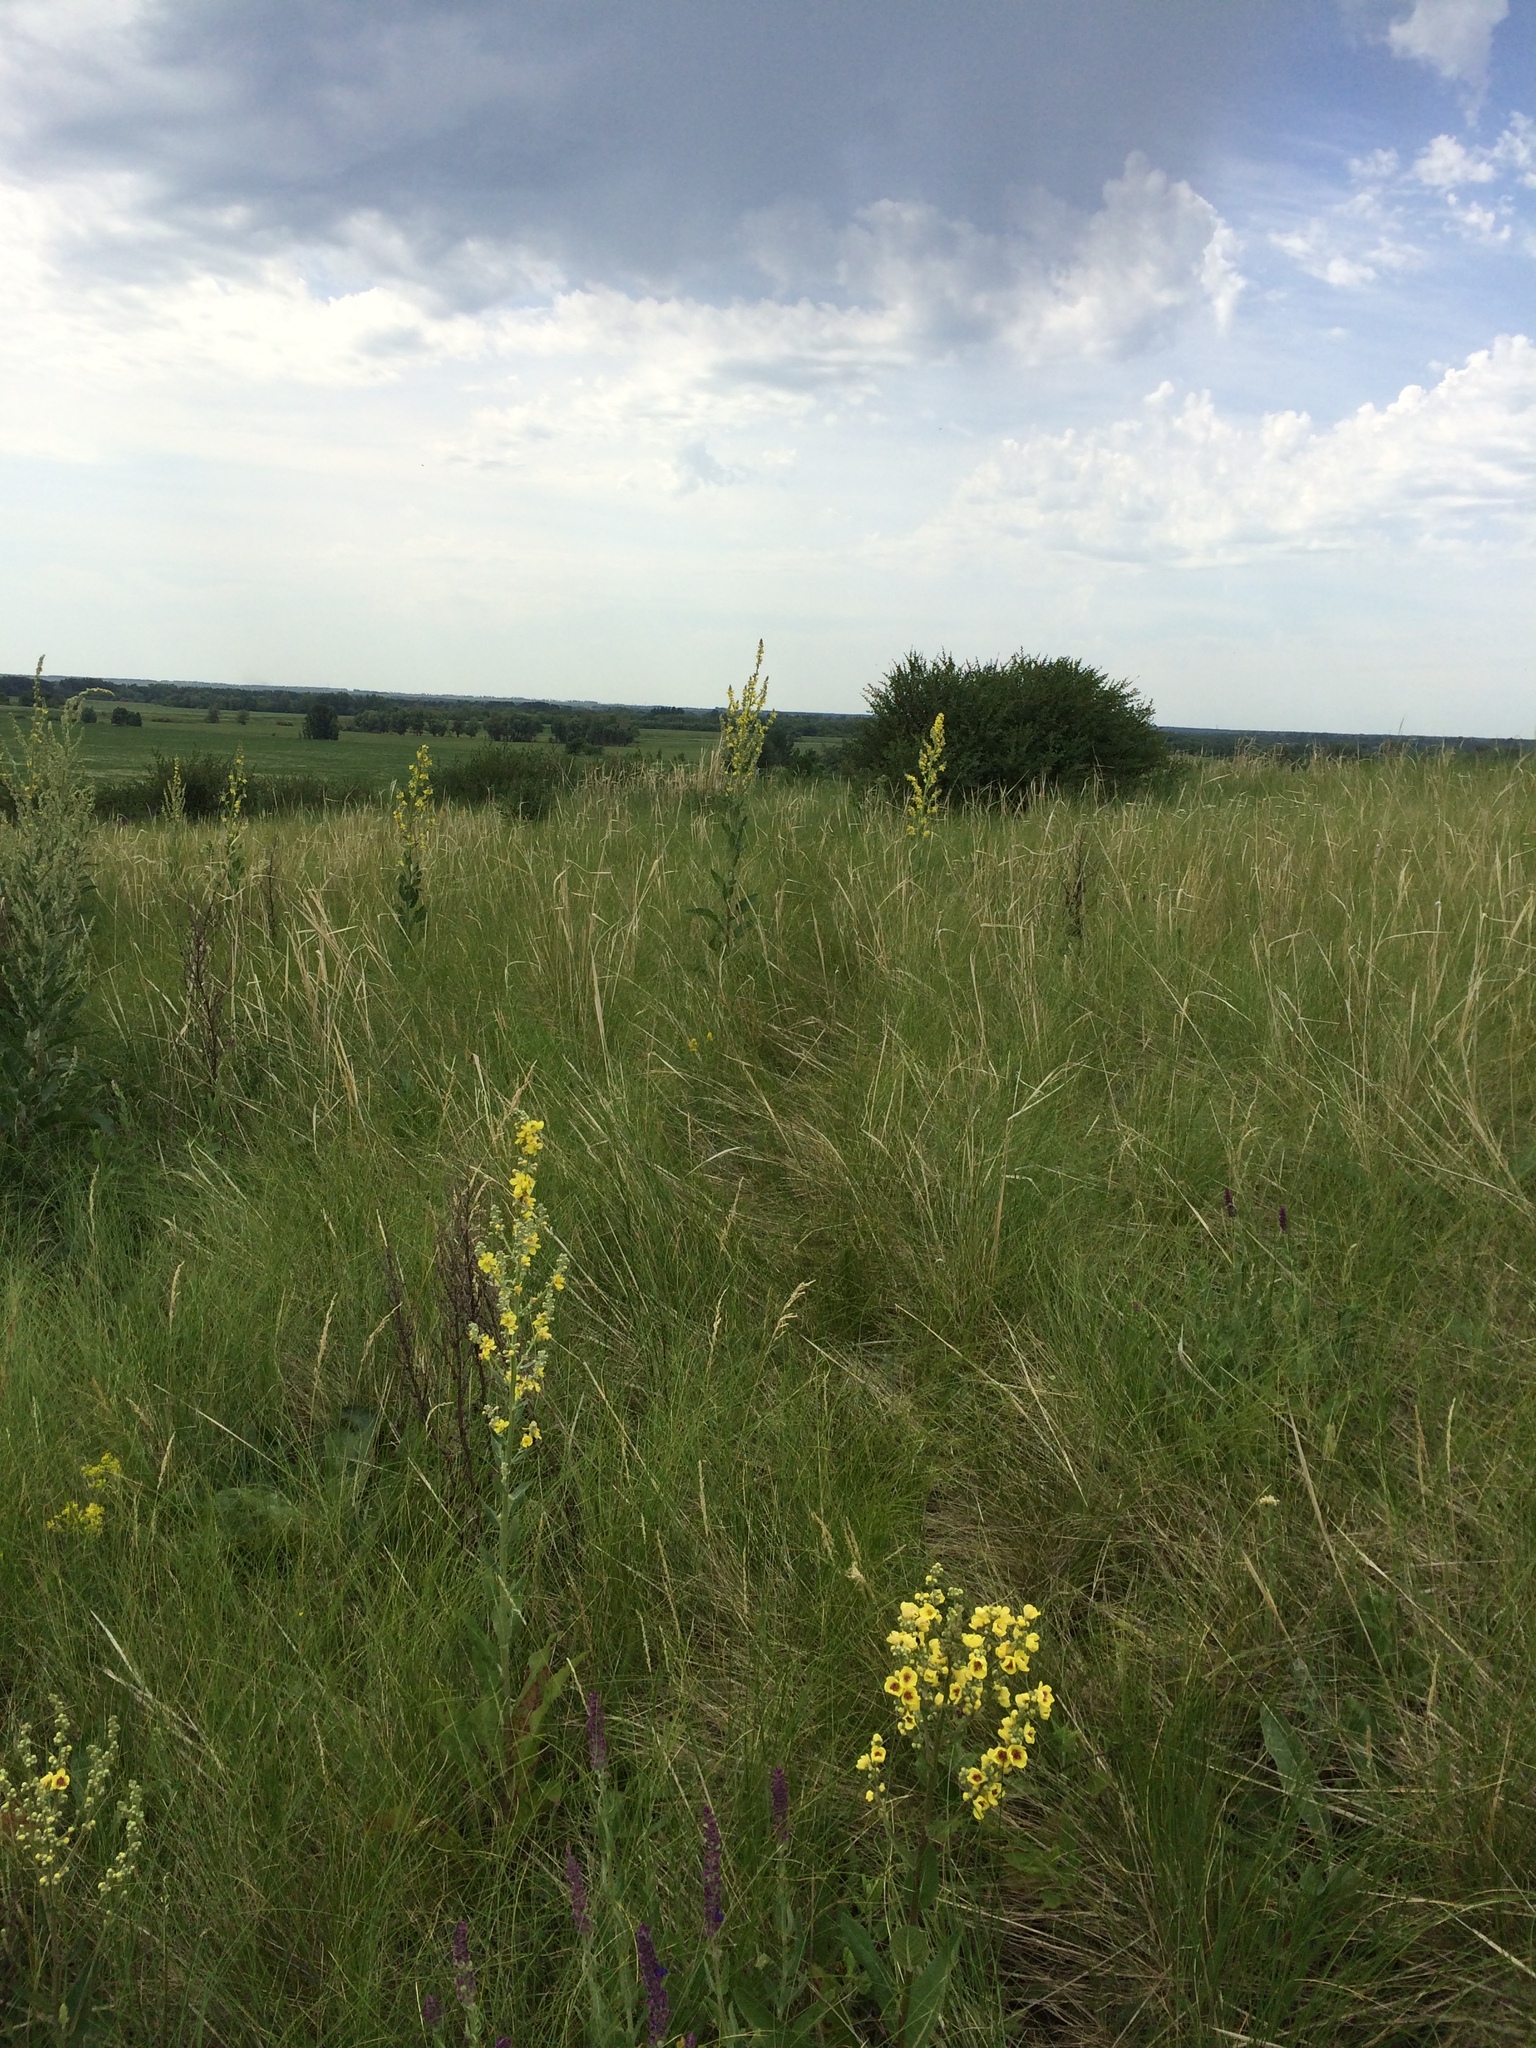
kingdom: Plantae
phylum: Tracheophyta
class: Magnoliopsida
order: Lamiales
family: Scrophulariaceae
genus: Verbascum
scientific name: Verbascum chaixii
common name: Nettle-leaved mullein
